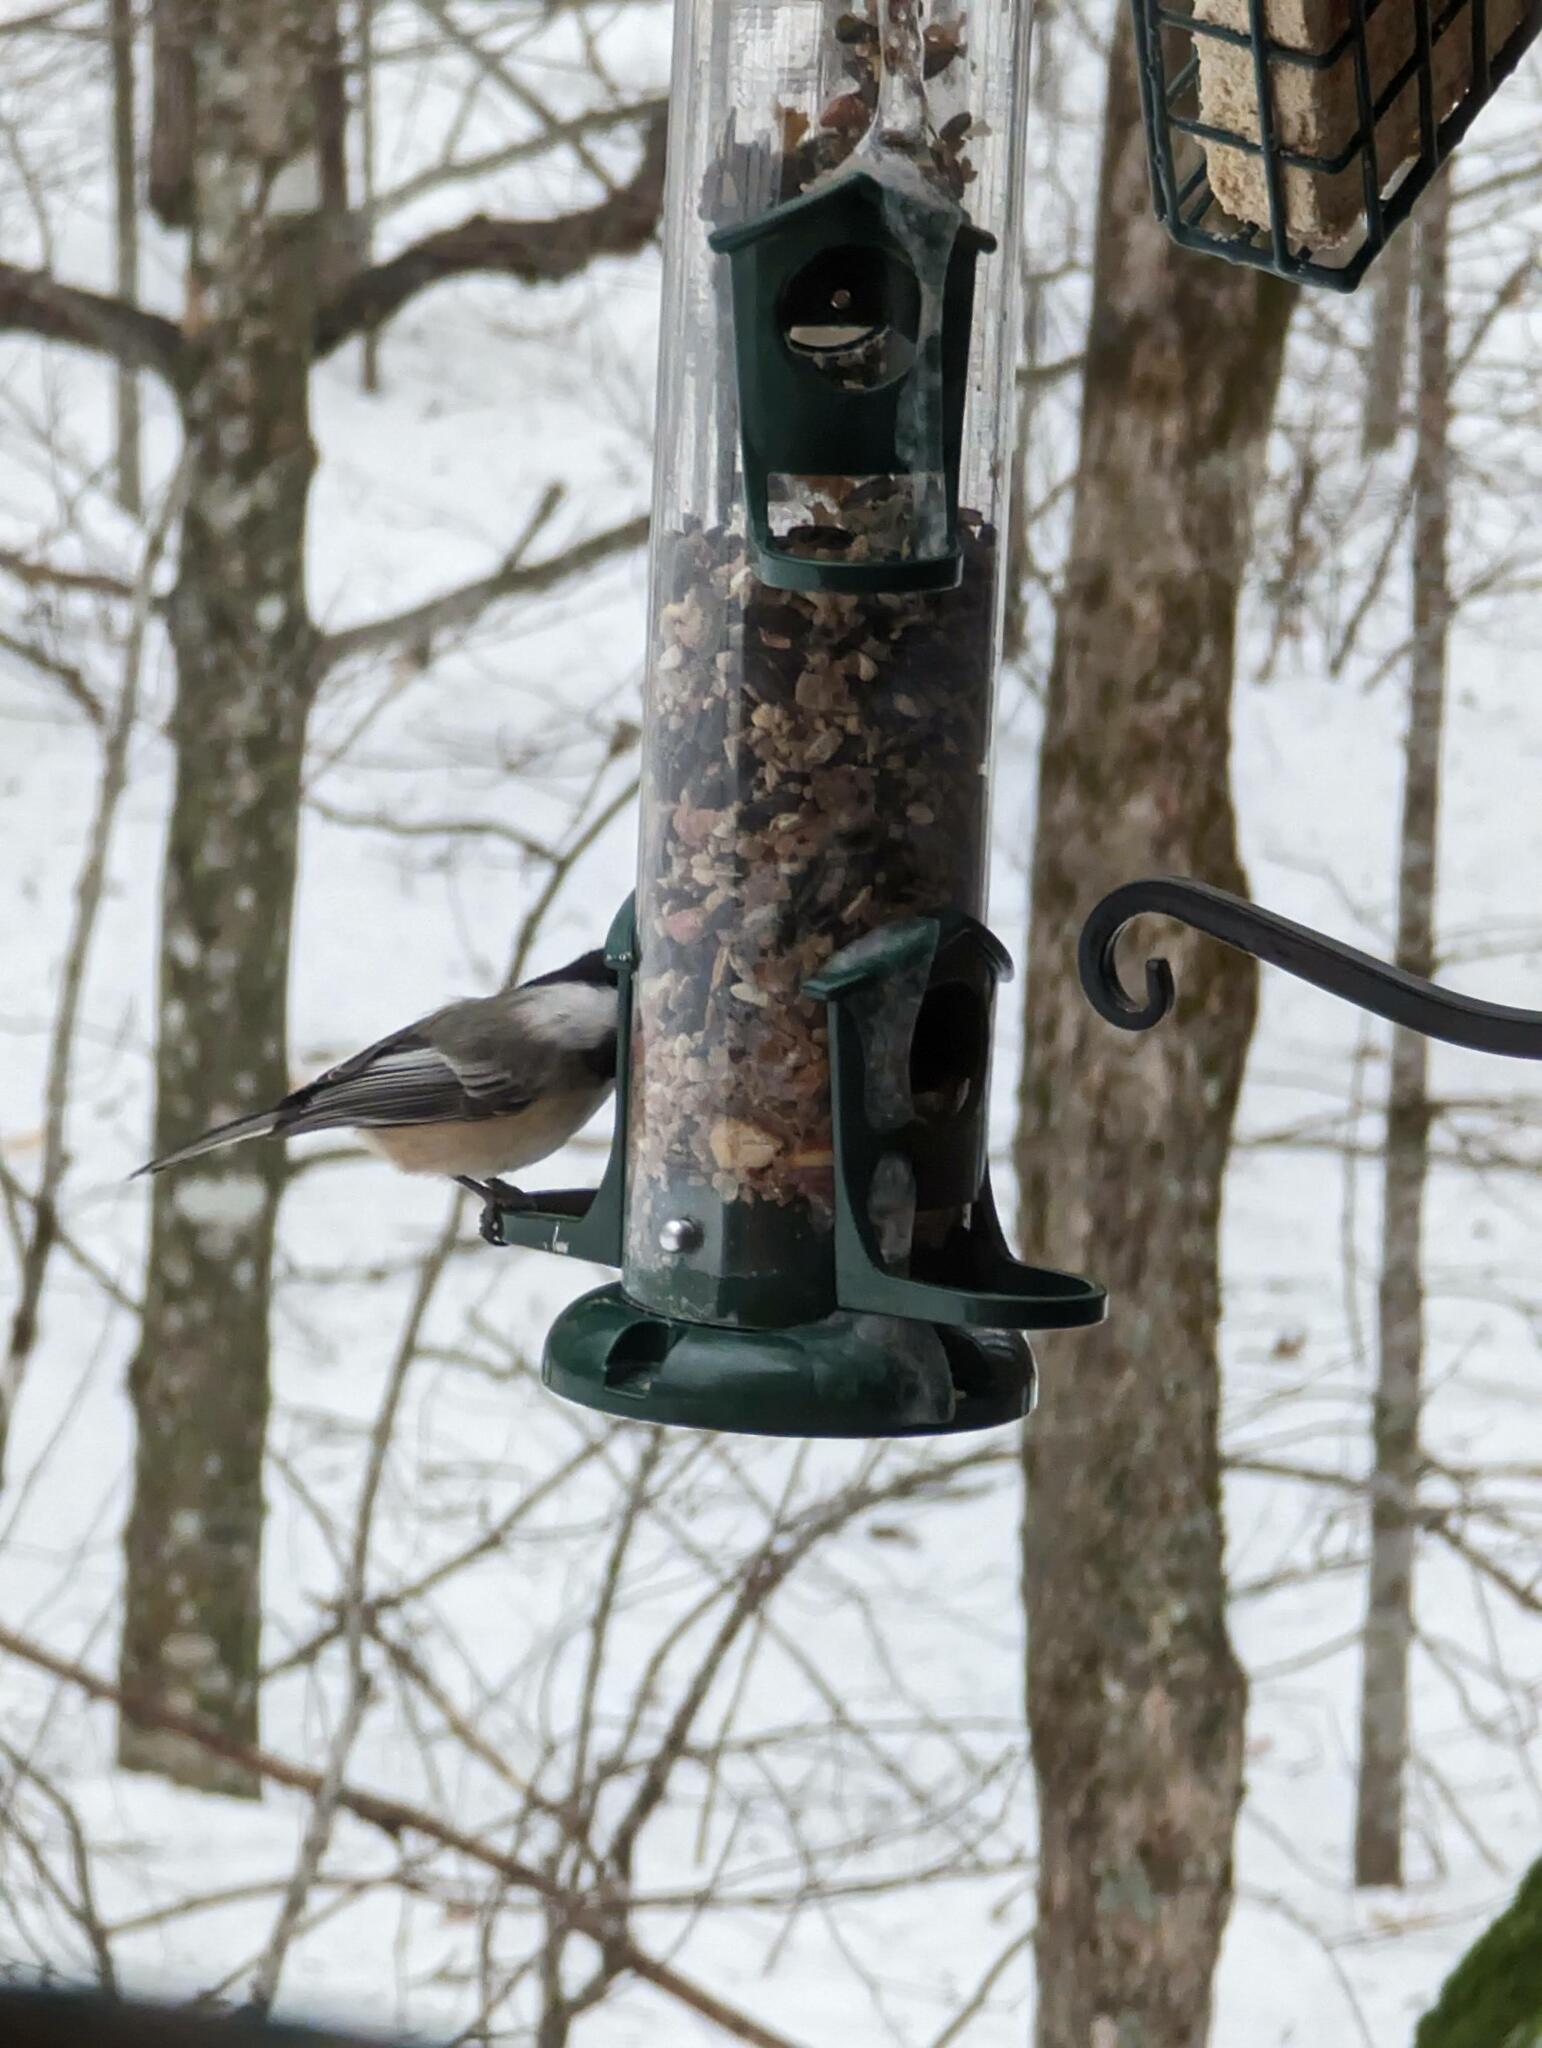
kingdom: Animalia
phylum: Chordata
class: Aves
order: Passeriformes
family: Paridae
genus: Poecile
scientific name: Poecile atricapillus
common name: Black-capped chickadee
